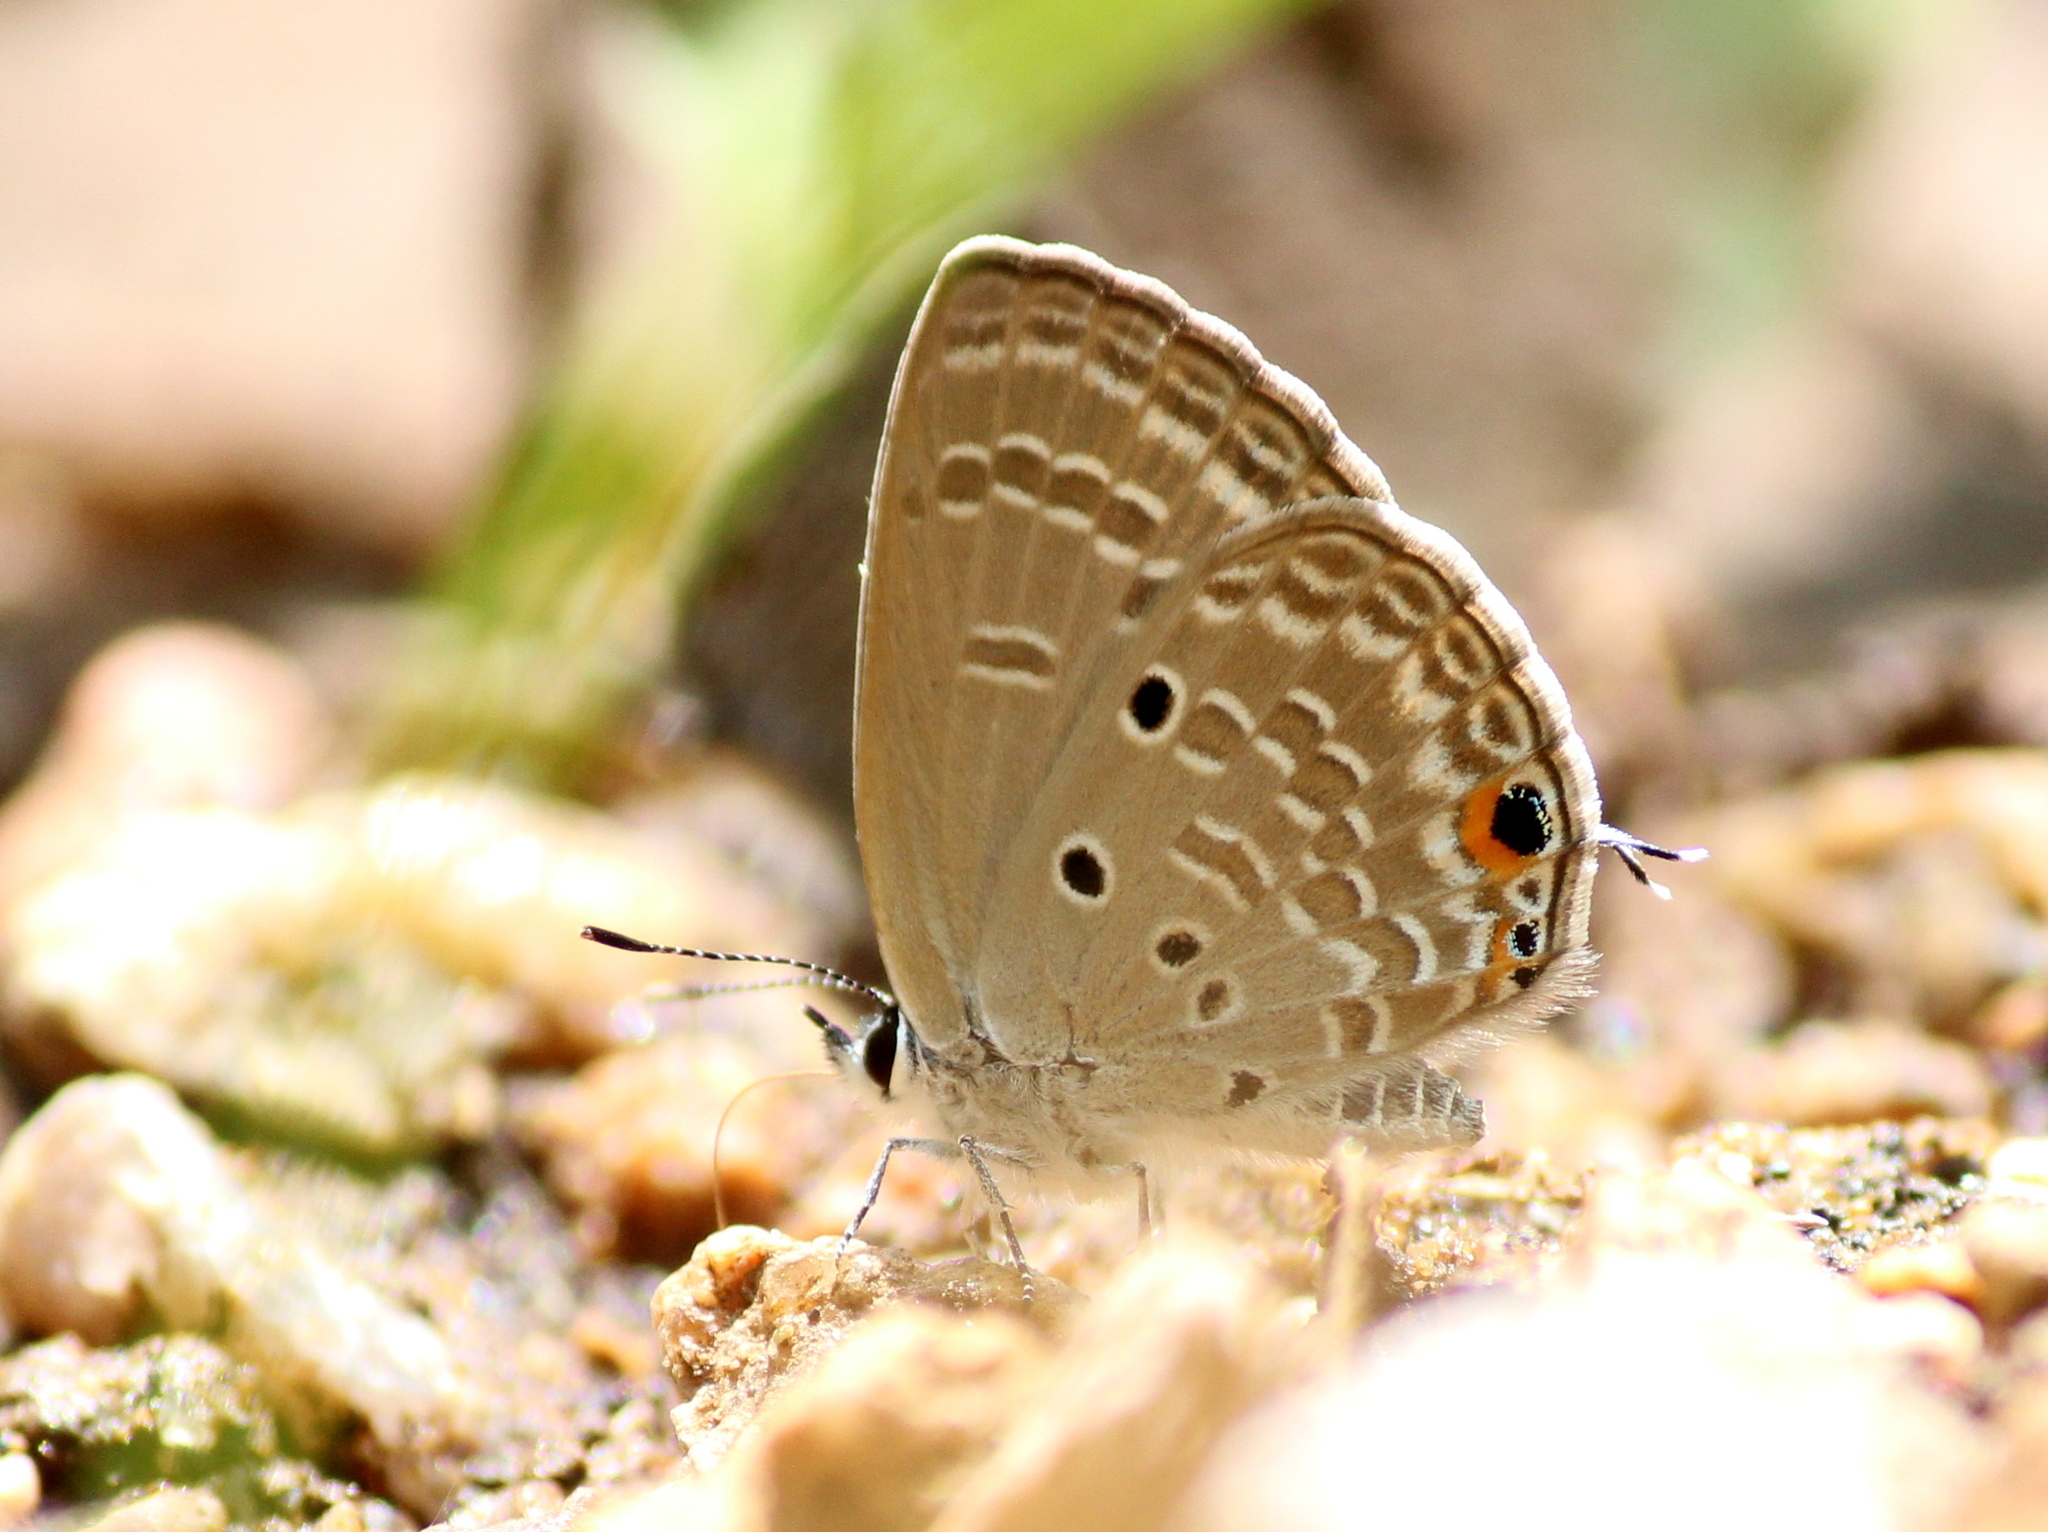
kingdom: Animalia
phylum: Arthropoda
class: Insecta
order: Lepidoptera
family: Lycaenidae
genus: Luthrodes
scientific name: Luthrodes pandava
